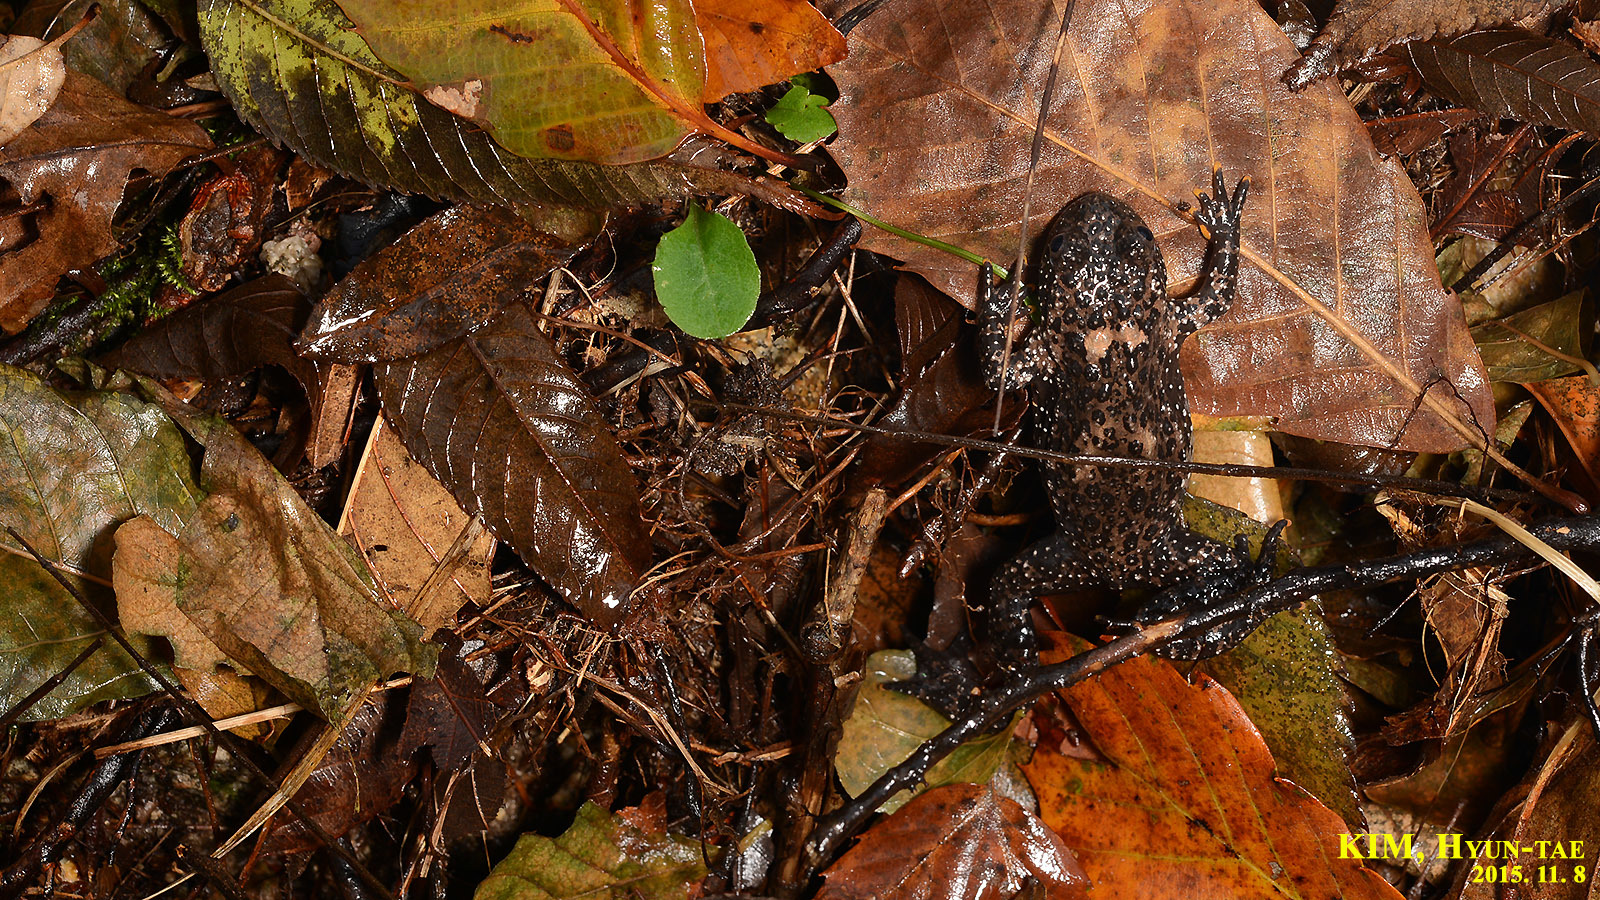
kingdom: Animalia
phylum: Chordata
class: Amphibia
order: Anura
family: Bombinatoridae
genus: Bombina
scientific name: Bombina orientalis
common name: Oriental firebelly toad
